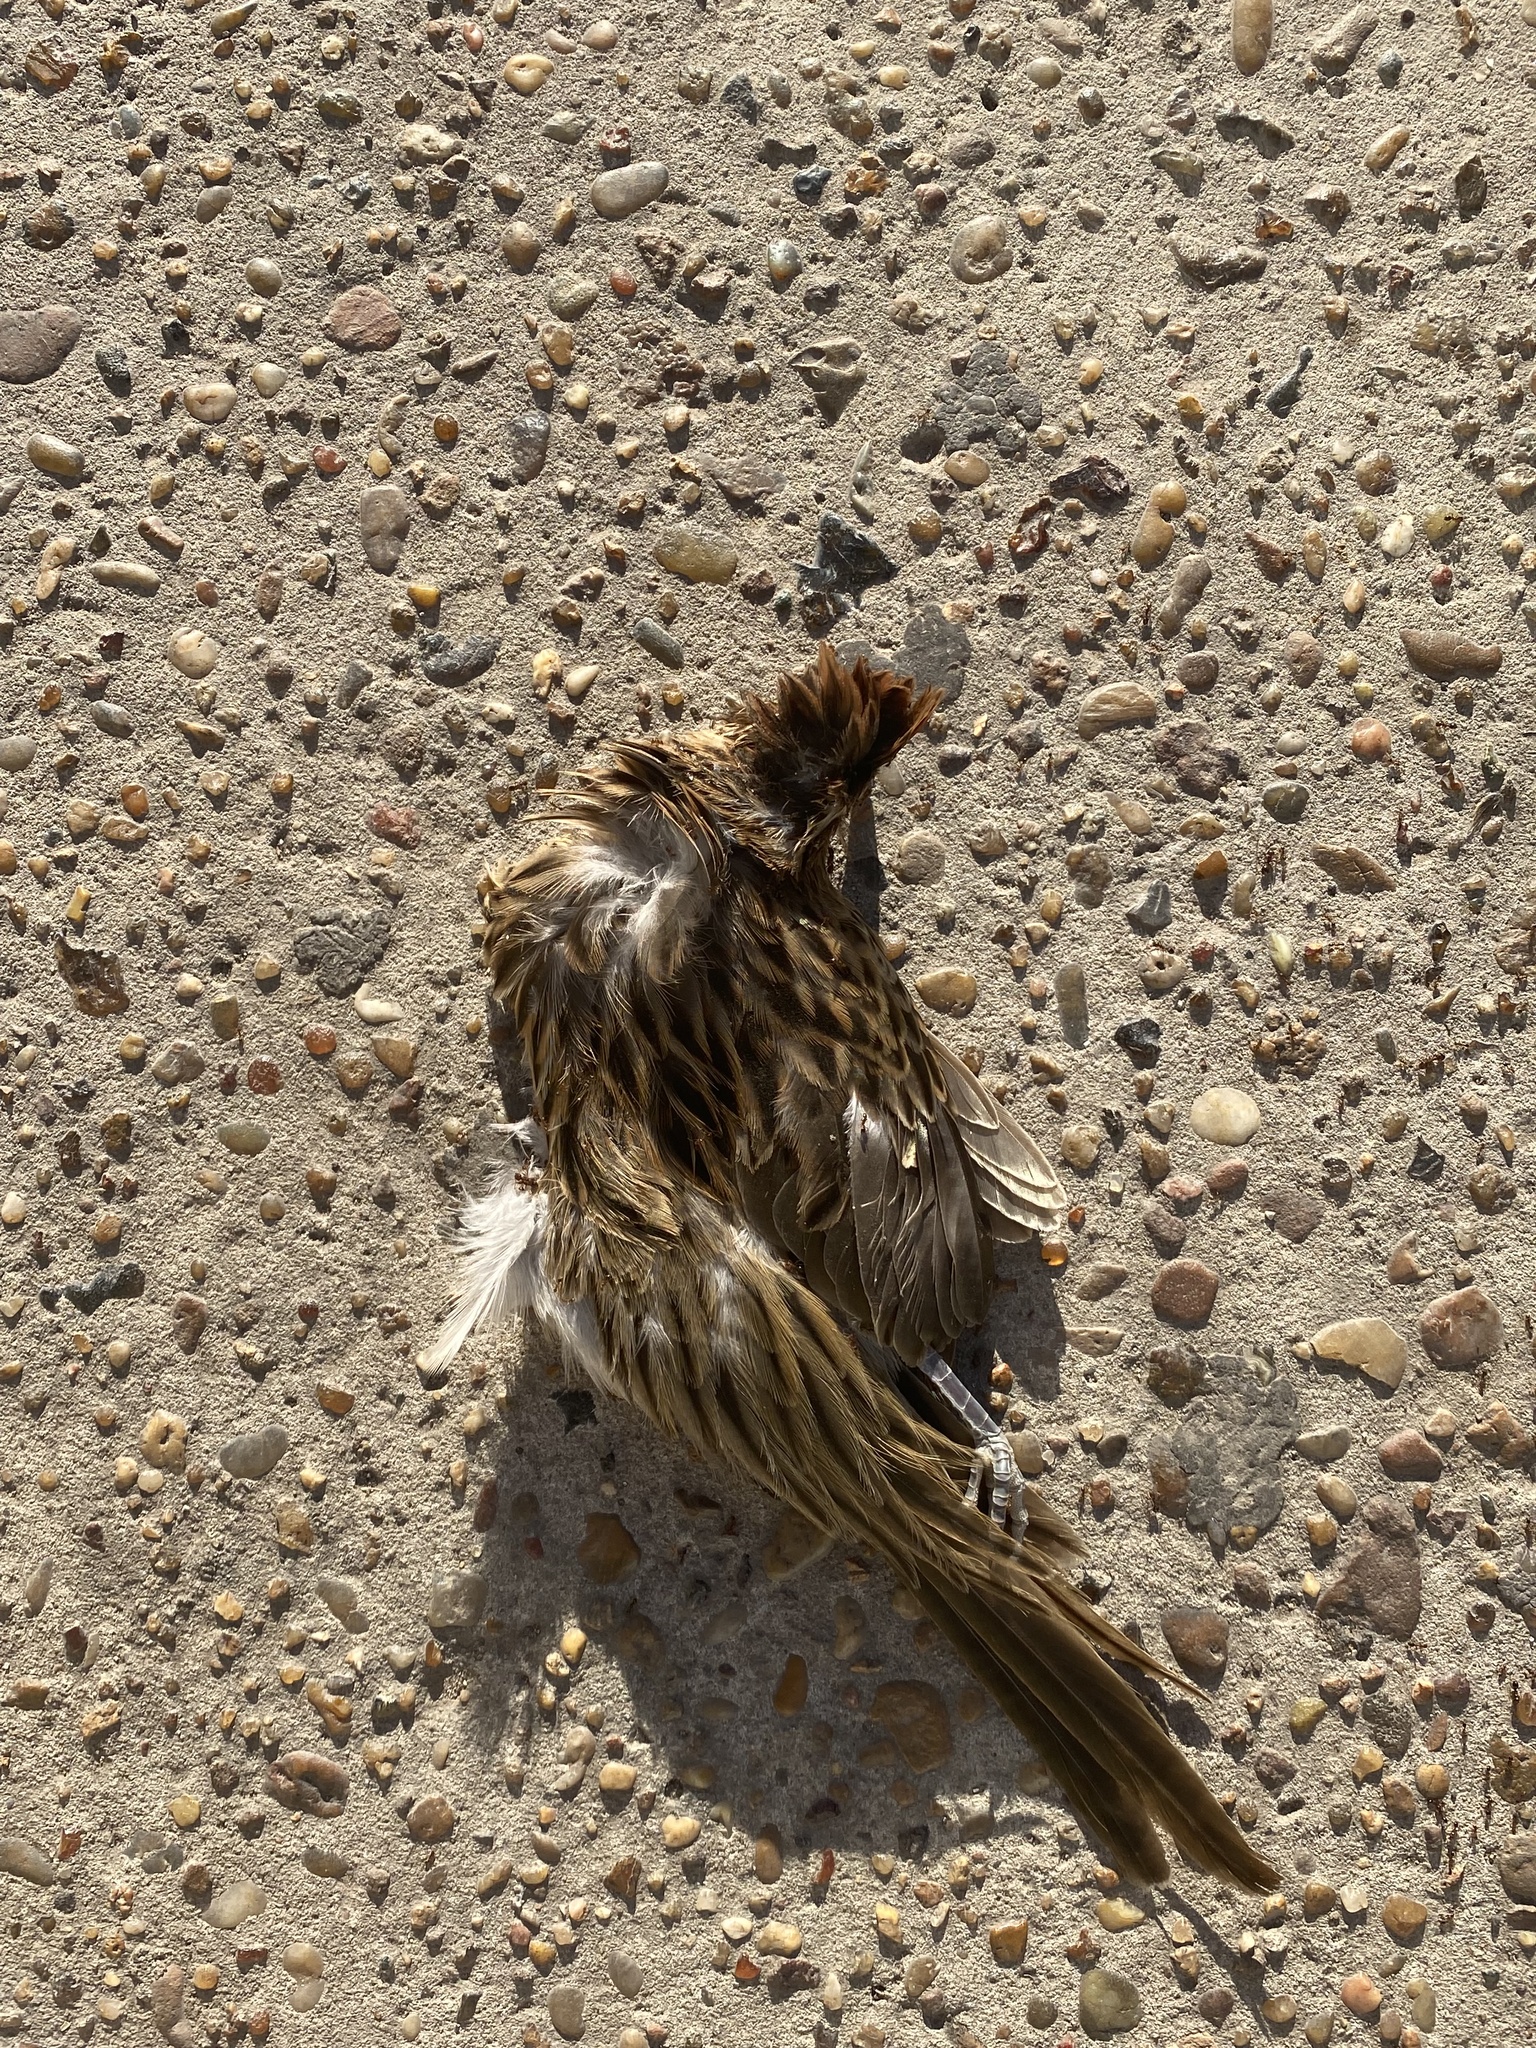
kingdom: Animalia
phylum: Chordata
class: Aves
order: Cuculiformes
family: Cuculidae
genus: Tapera
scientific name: Tapera naevia
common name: Striped cuckoo
